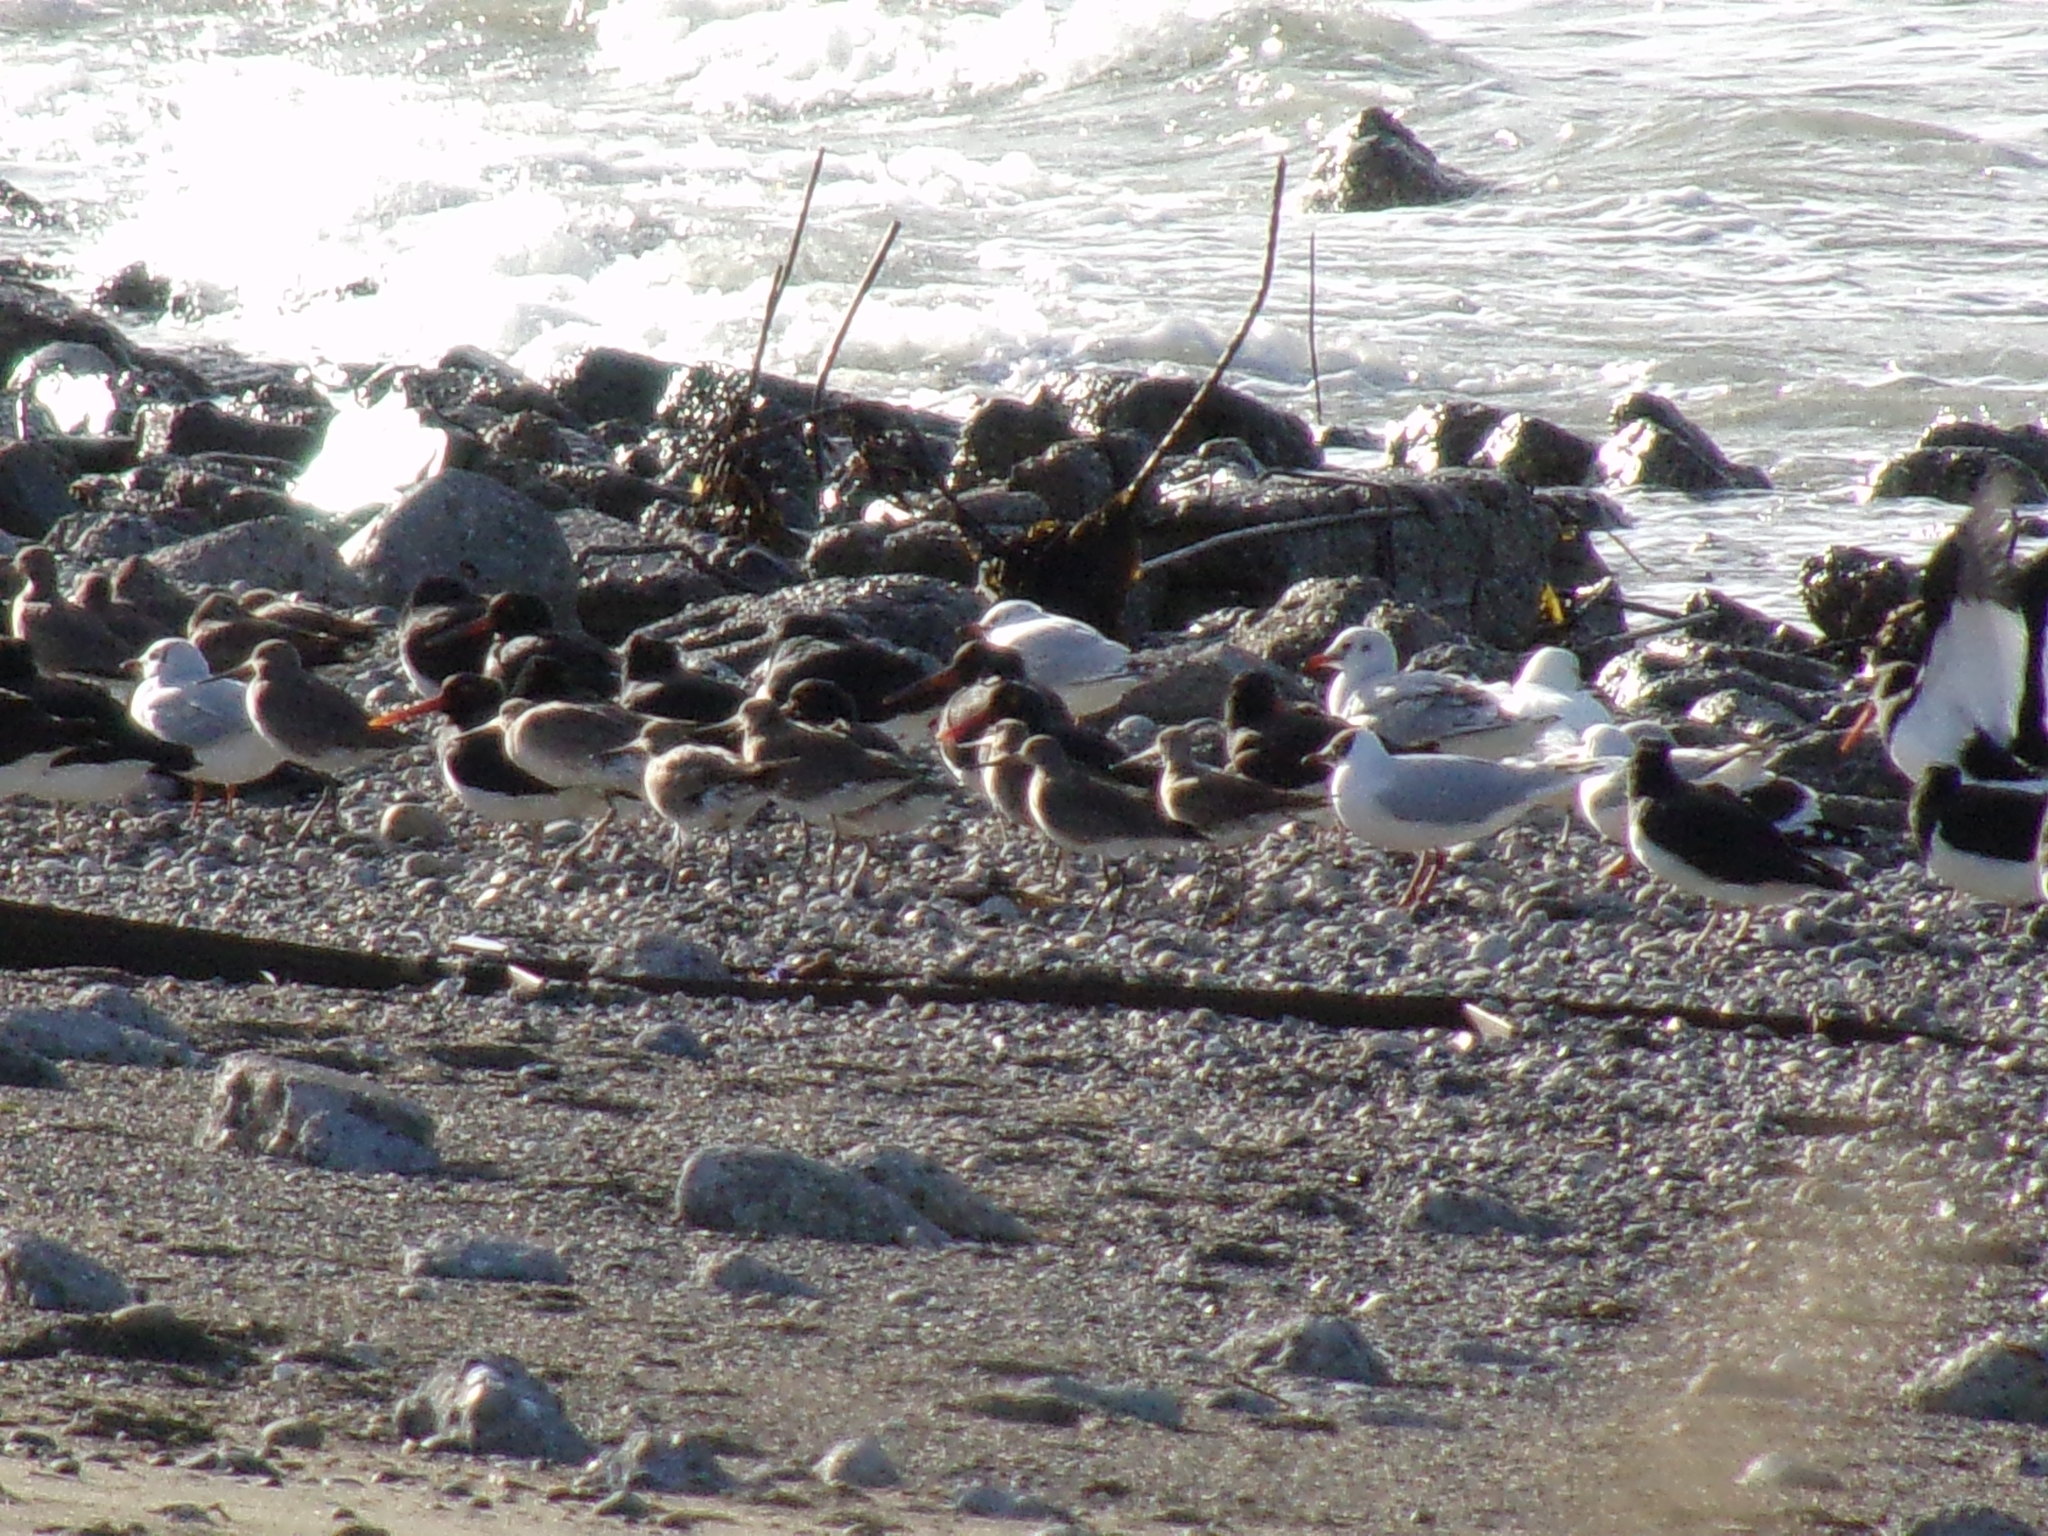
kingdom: Animalia
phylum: Chordata
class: Aves
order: Charadriiformes
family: Scolopacidae
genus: Limosa
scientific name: Limosa haemastica
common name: Hudsonian godwit
